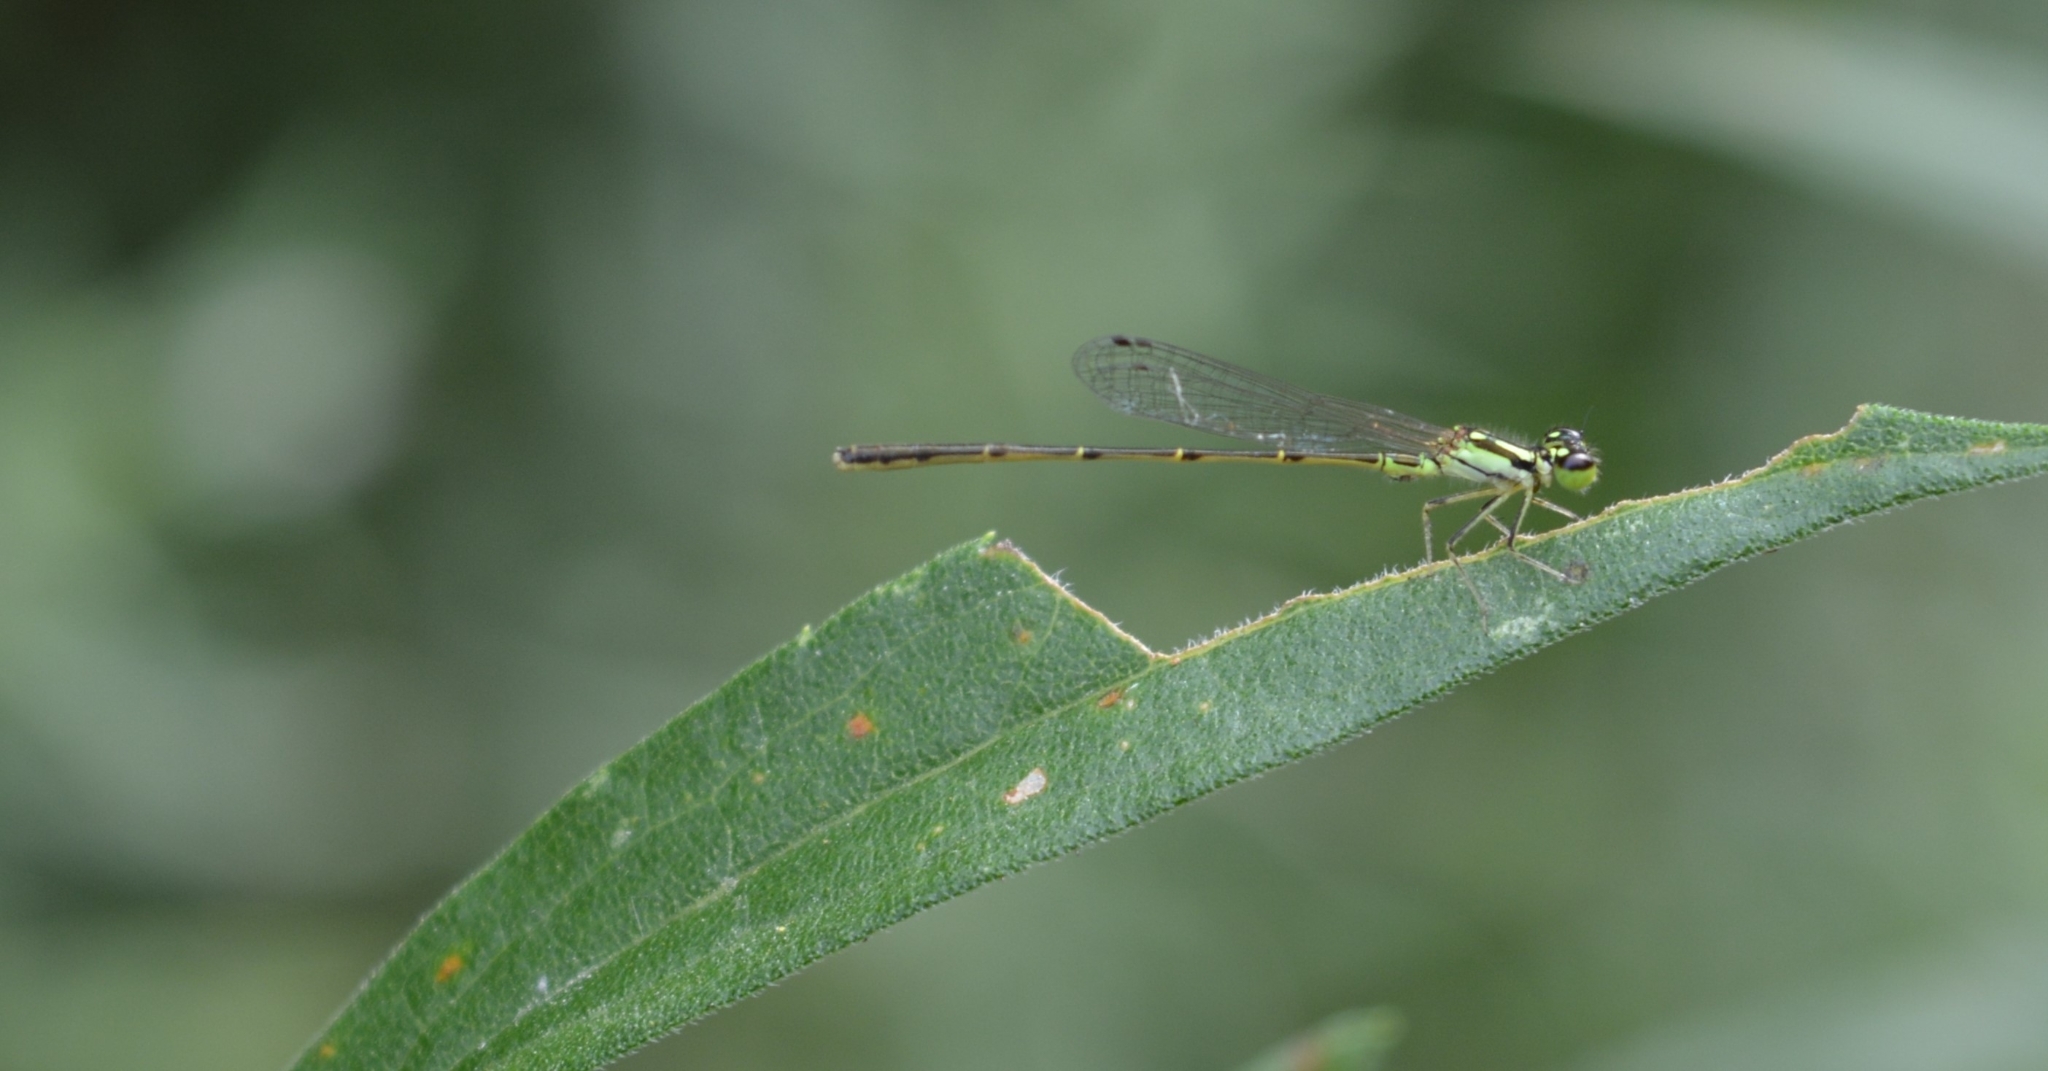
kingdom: Animalia
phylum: Arthropoda
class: Insecta
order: Odonata
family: Coenagrionidae
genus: Ischnura
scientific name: Ischnura posita
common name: Fragile forktail
